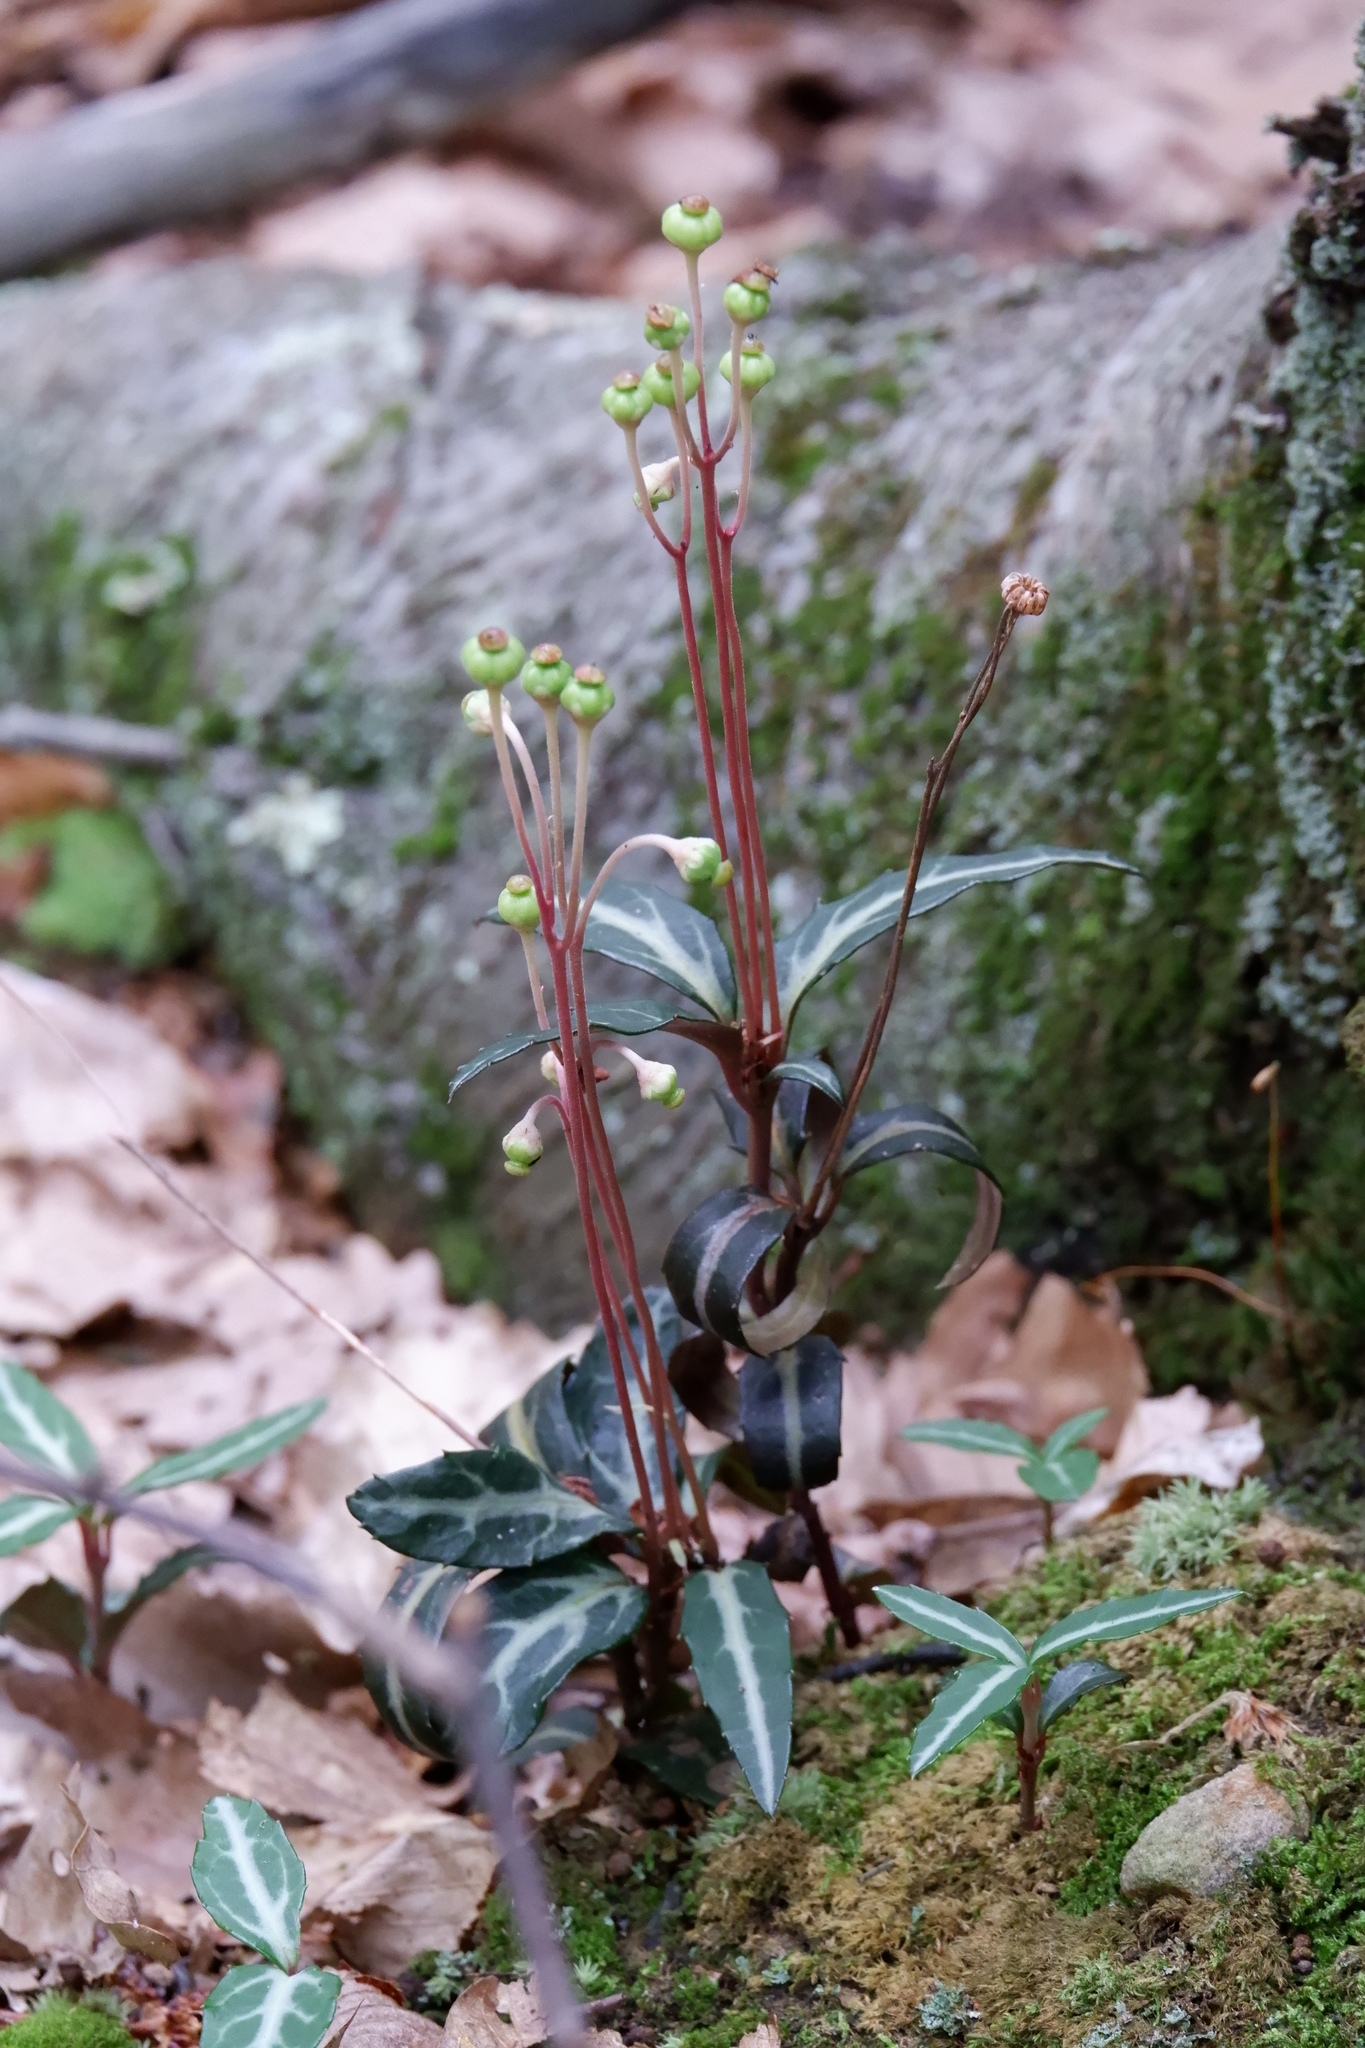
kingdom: Plantae
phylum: Tracheophyta
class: Magnoliopsida
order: Ericales
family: Ericaceae
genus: Chimaphila
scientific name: Chimaphila maculata
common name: Spotted pipsissewa
